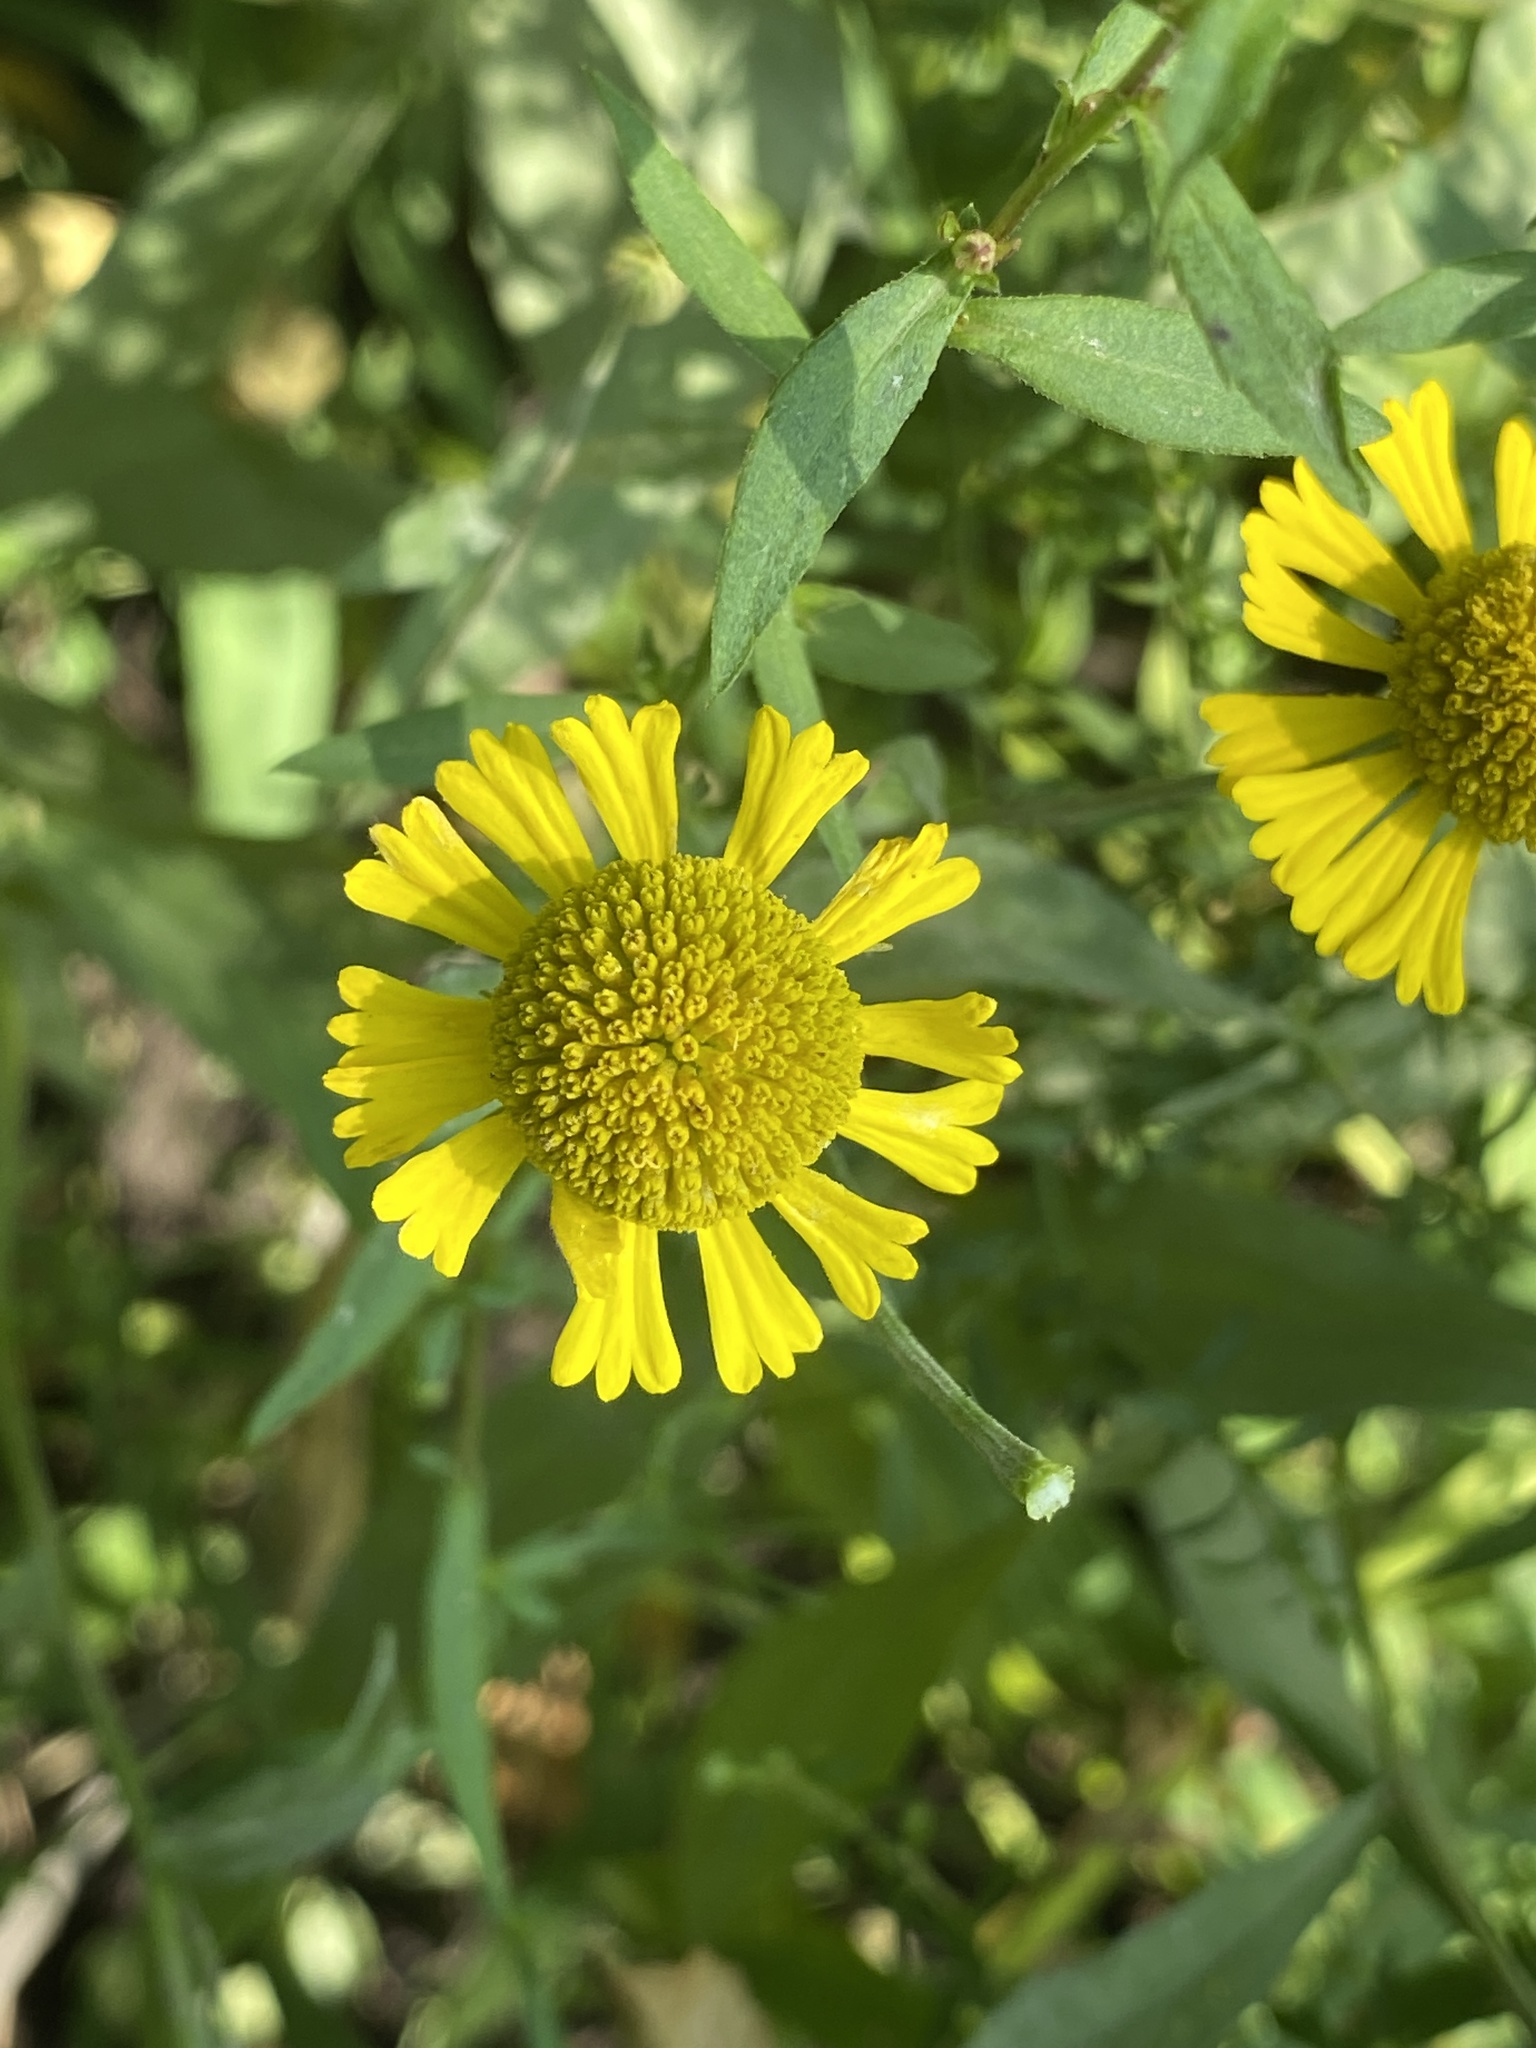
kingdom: Plantae
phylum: Tracheophyta
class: Magnoliopsida
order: Asterales
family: Asteraceae
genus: Helenium
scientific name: Helenium autumnale
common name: Sneezeweed
